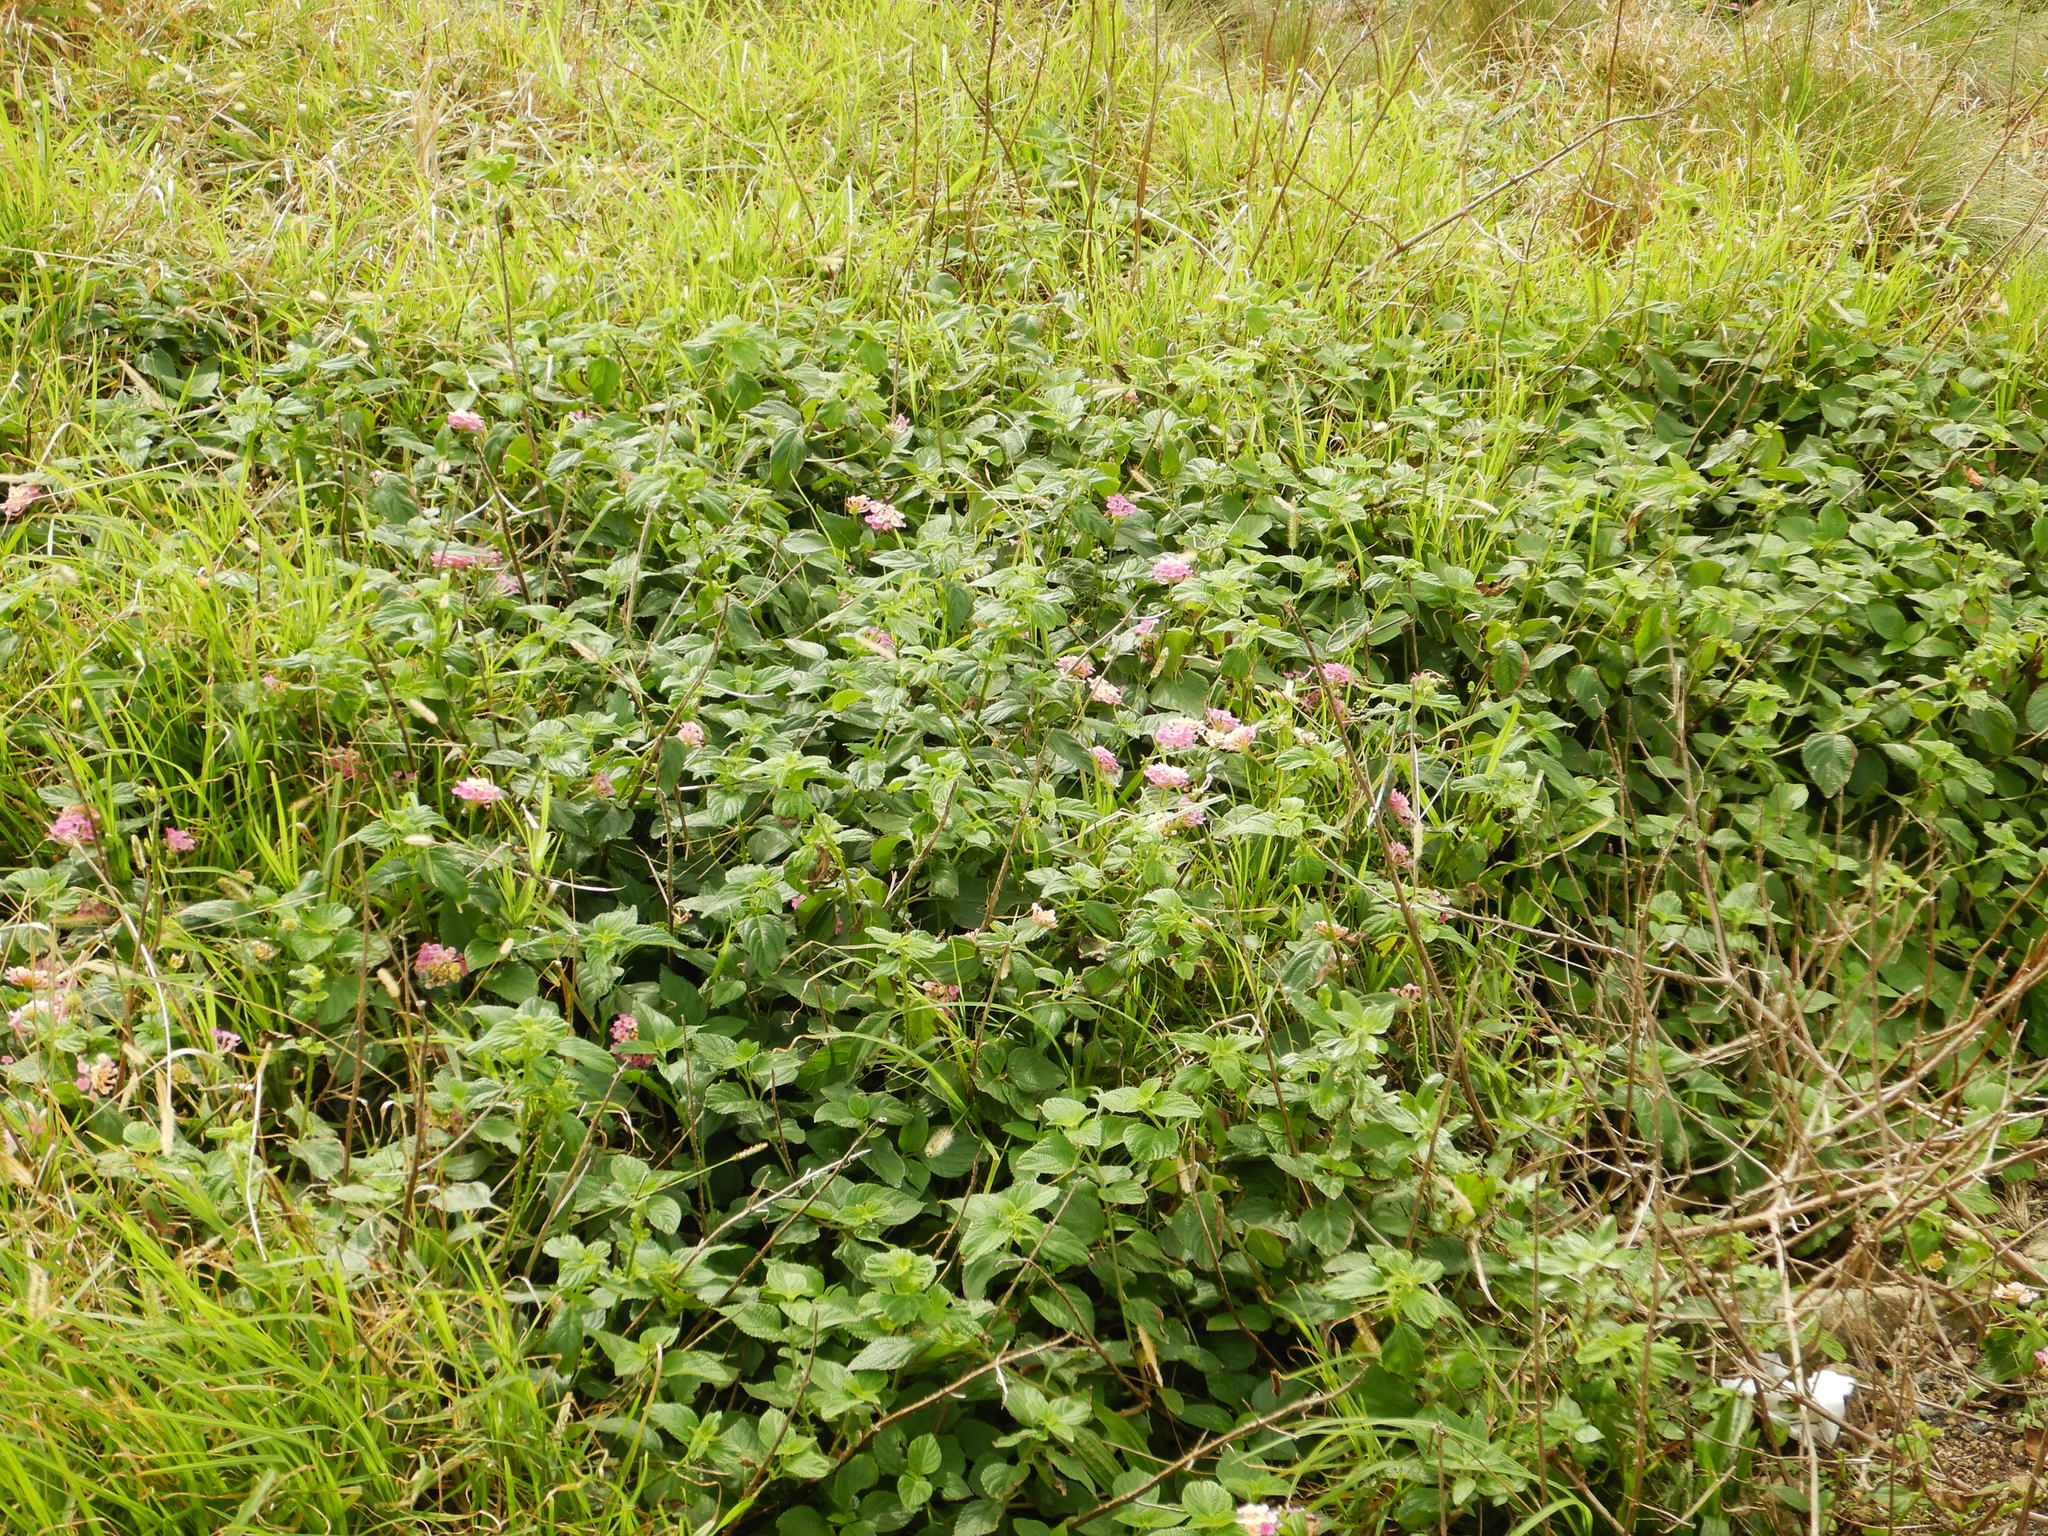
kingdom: Plantae
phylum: Tracheophyta
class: Magnoliopsida
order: Lamiales
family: Verbenaceae
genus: Lantana
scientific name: Lantana camara
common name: Lantana
